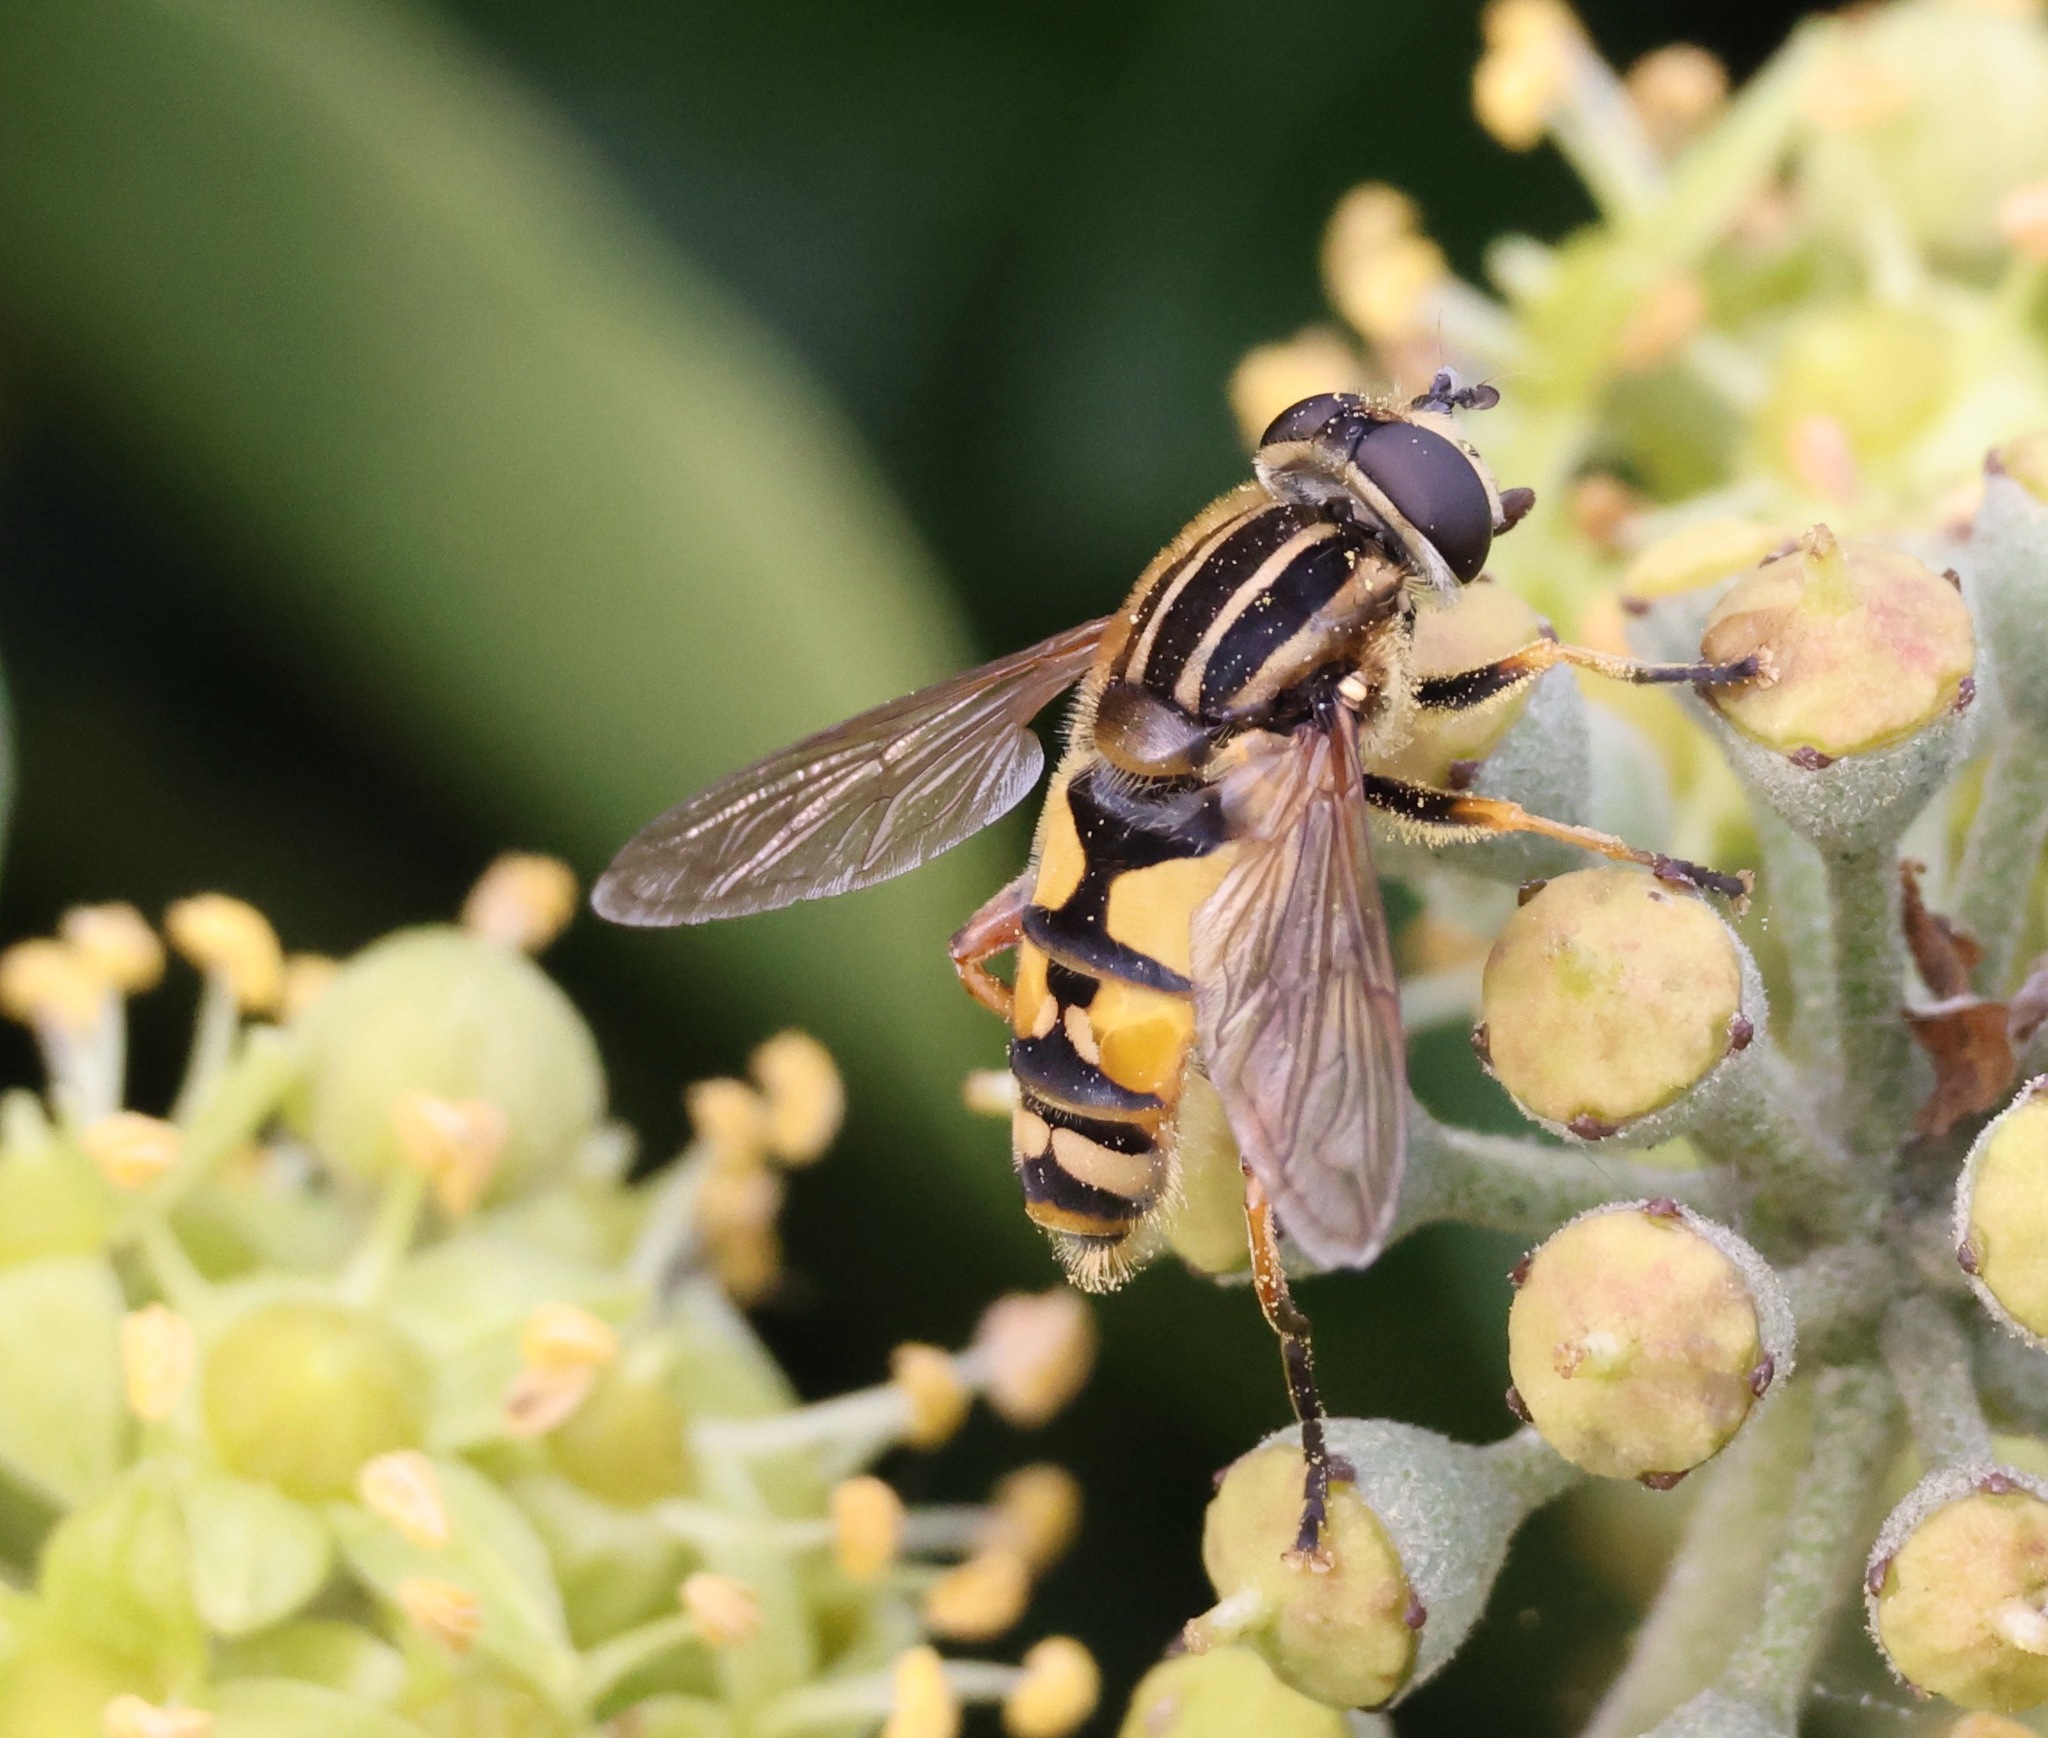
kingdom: Animalia
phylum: Arthropoda
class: Insecta
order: Diptera
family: Syrphidae
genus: Helophilus
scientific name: Helophilus pendulus
